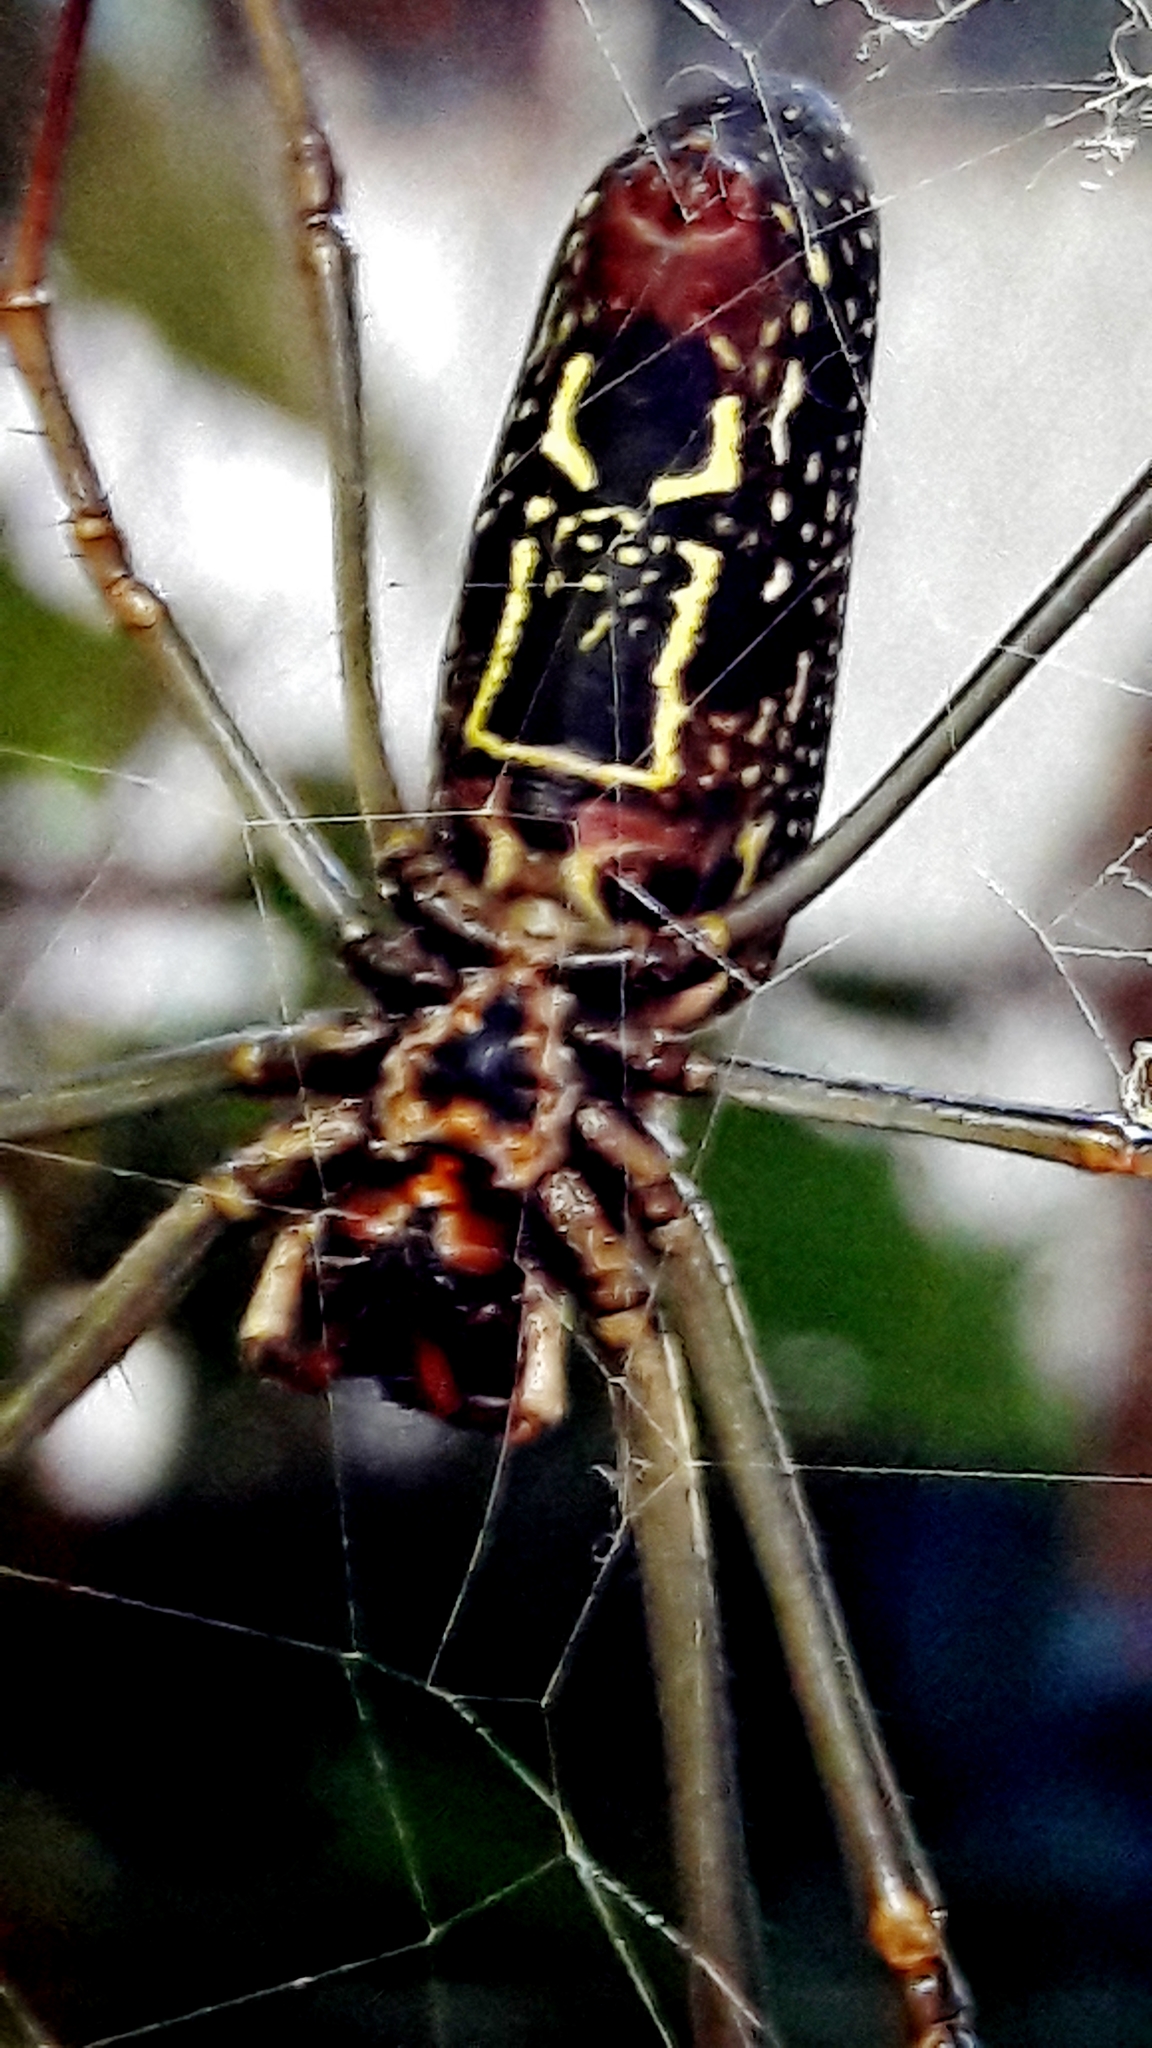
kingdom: Animalia
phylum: Arthropoda
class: Arachnida
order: Araneae
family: Araneidae
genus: Trichonephila
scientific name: Trichonephila clavipes
